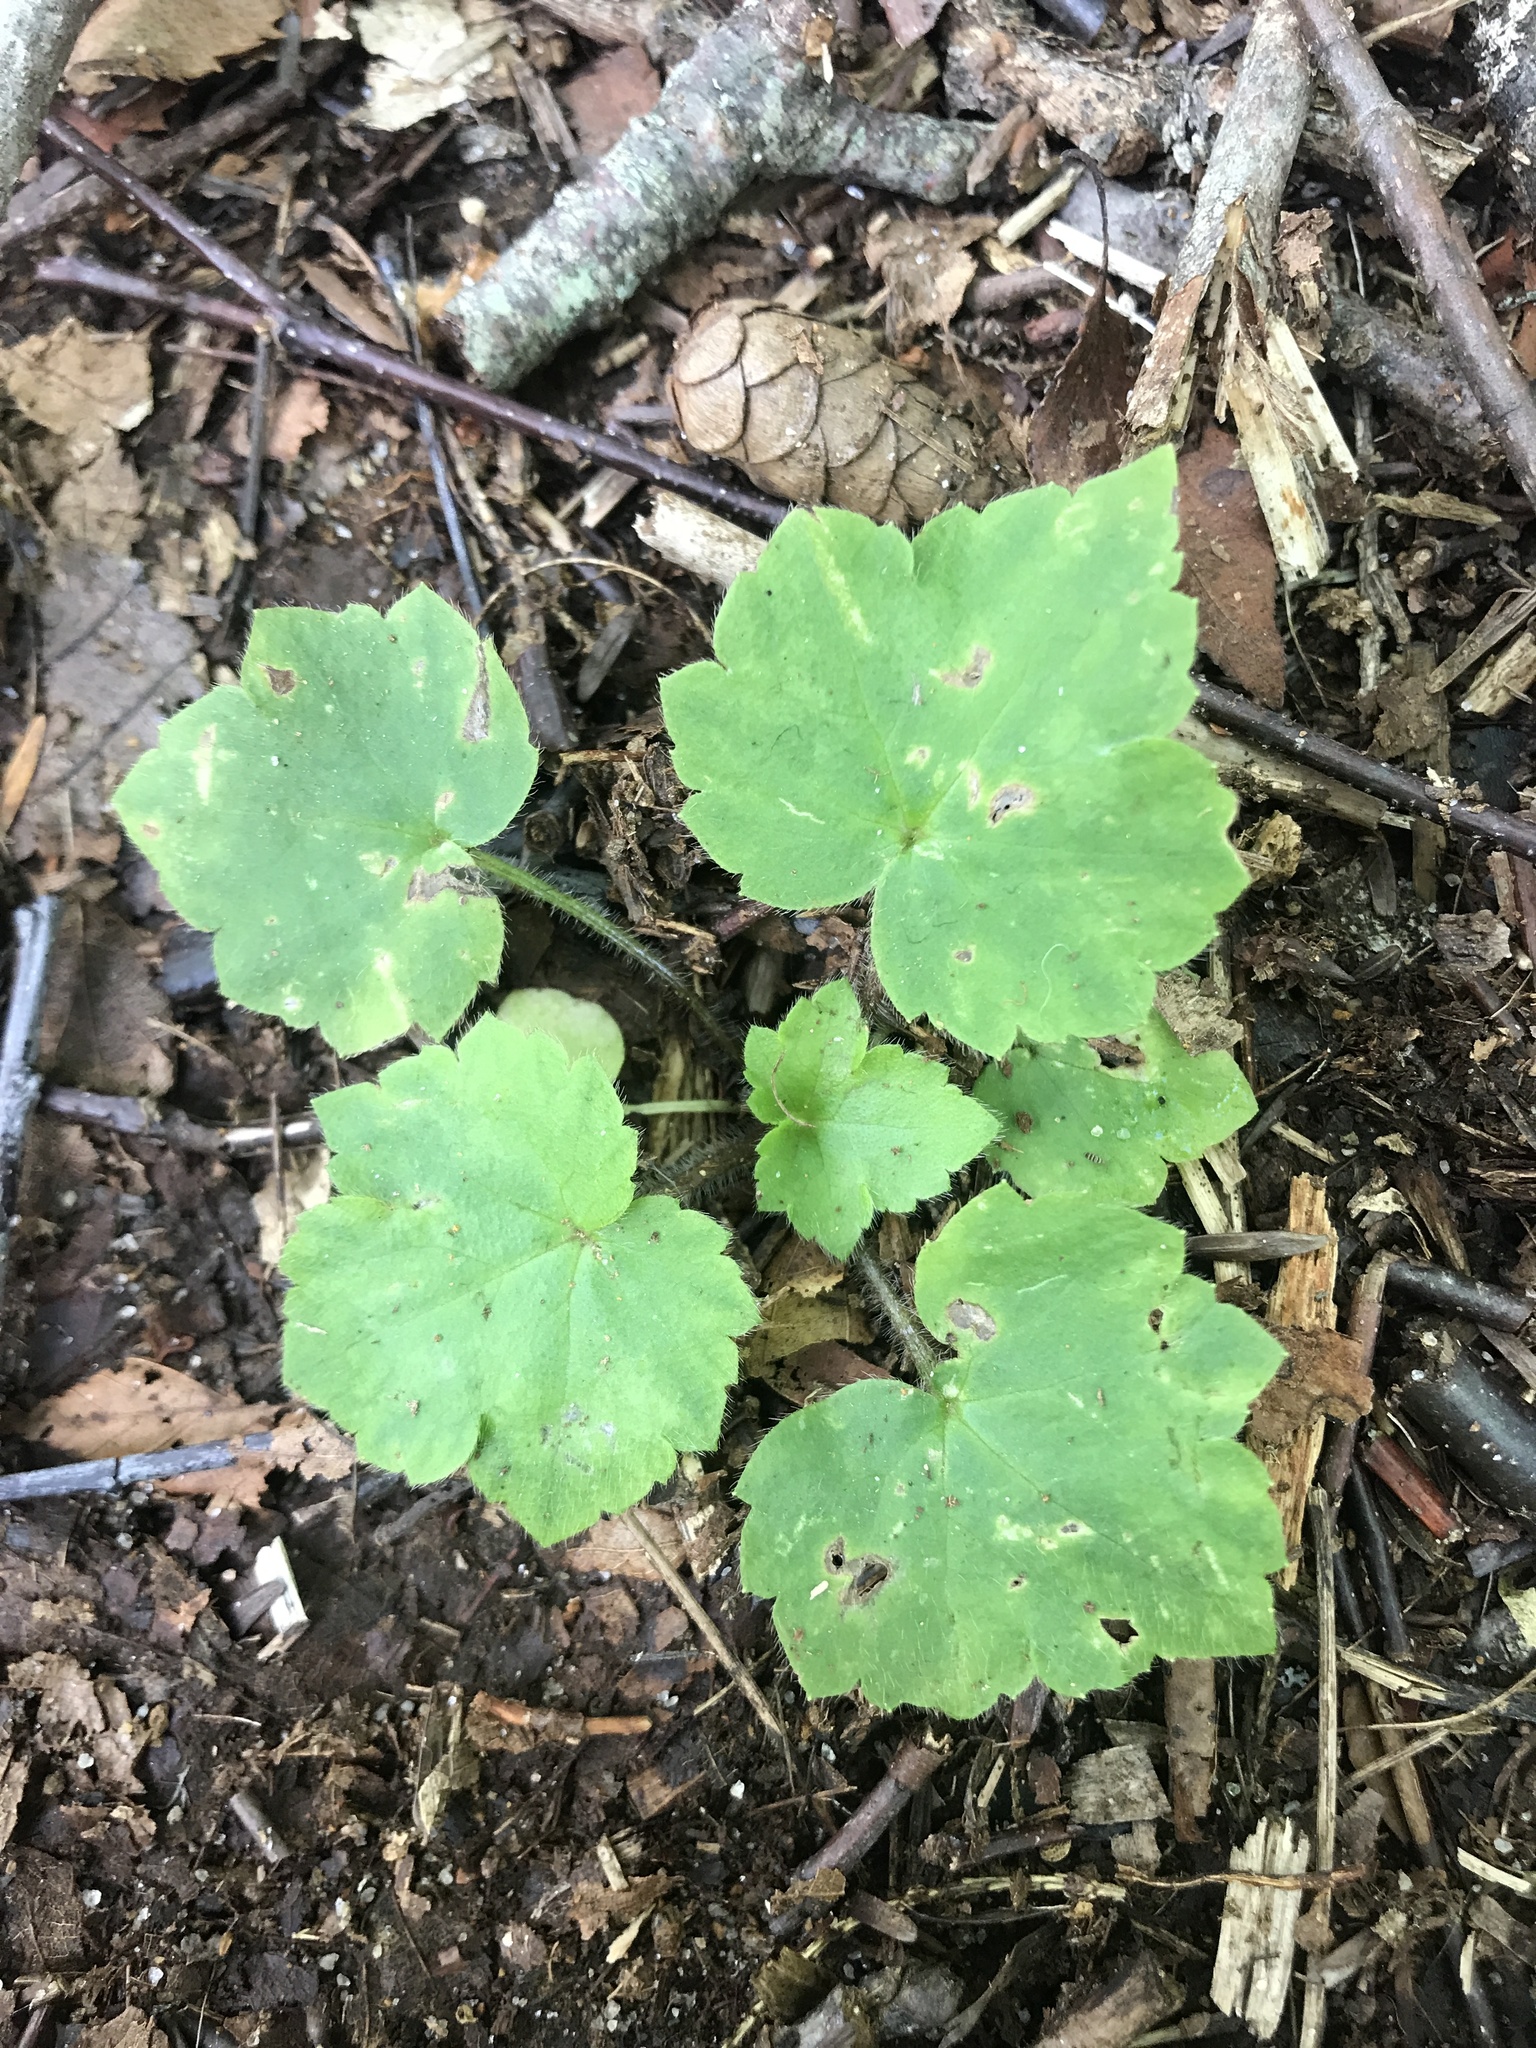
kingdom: Plantae
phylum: Tracheophyta
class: Magnoliopsida
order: Saxifragales
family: Saxifragaceae
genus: Tiarella
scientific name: Tiarella stolonifera
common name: Stoloniferous foamflower
